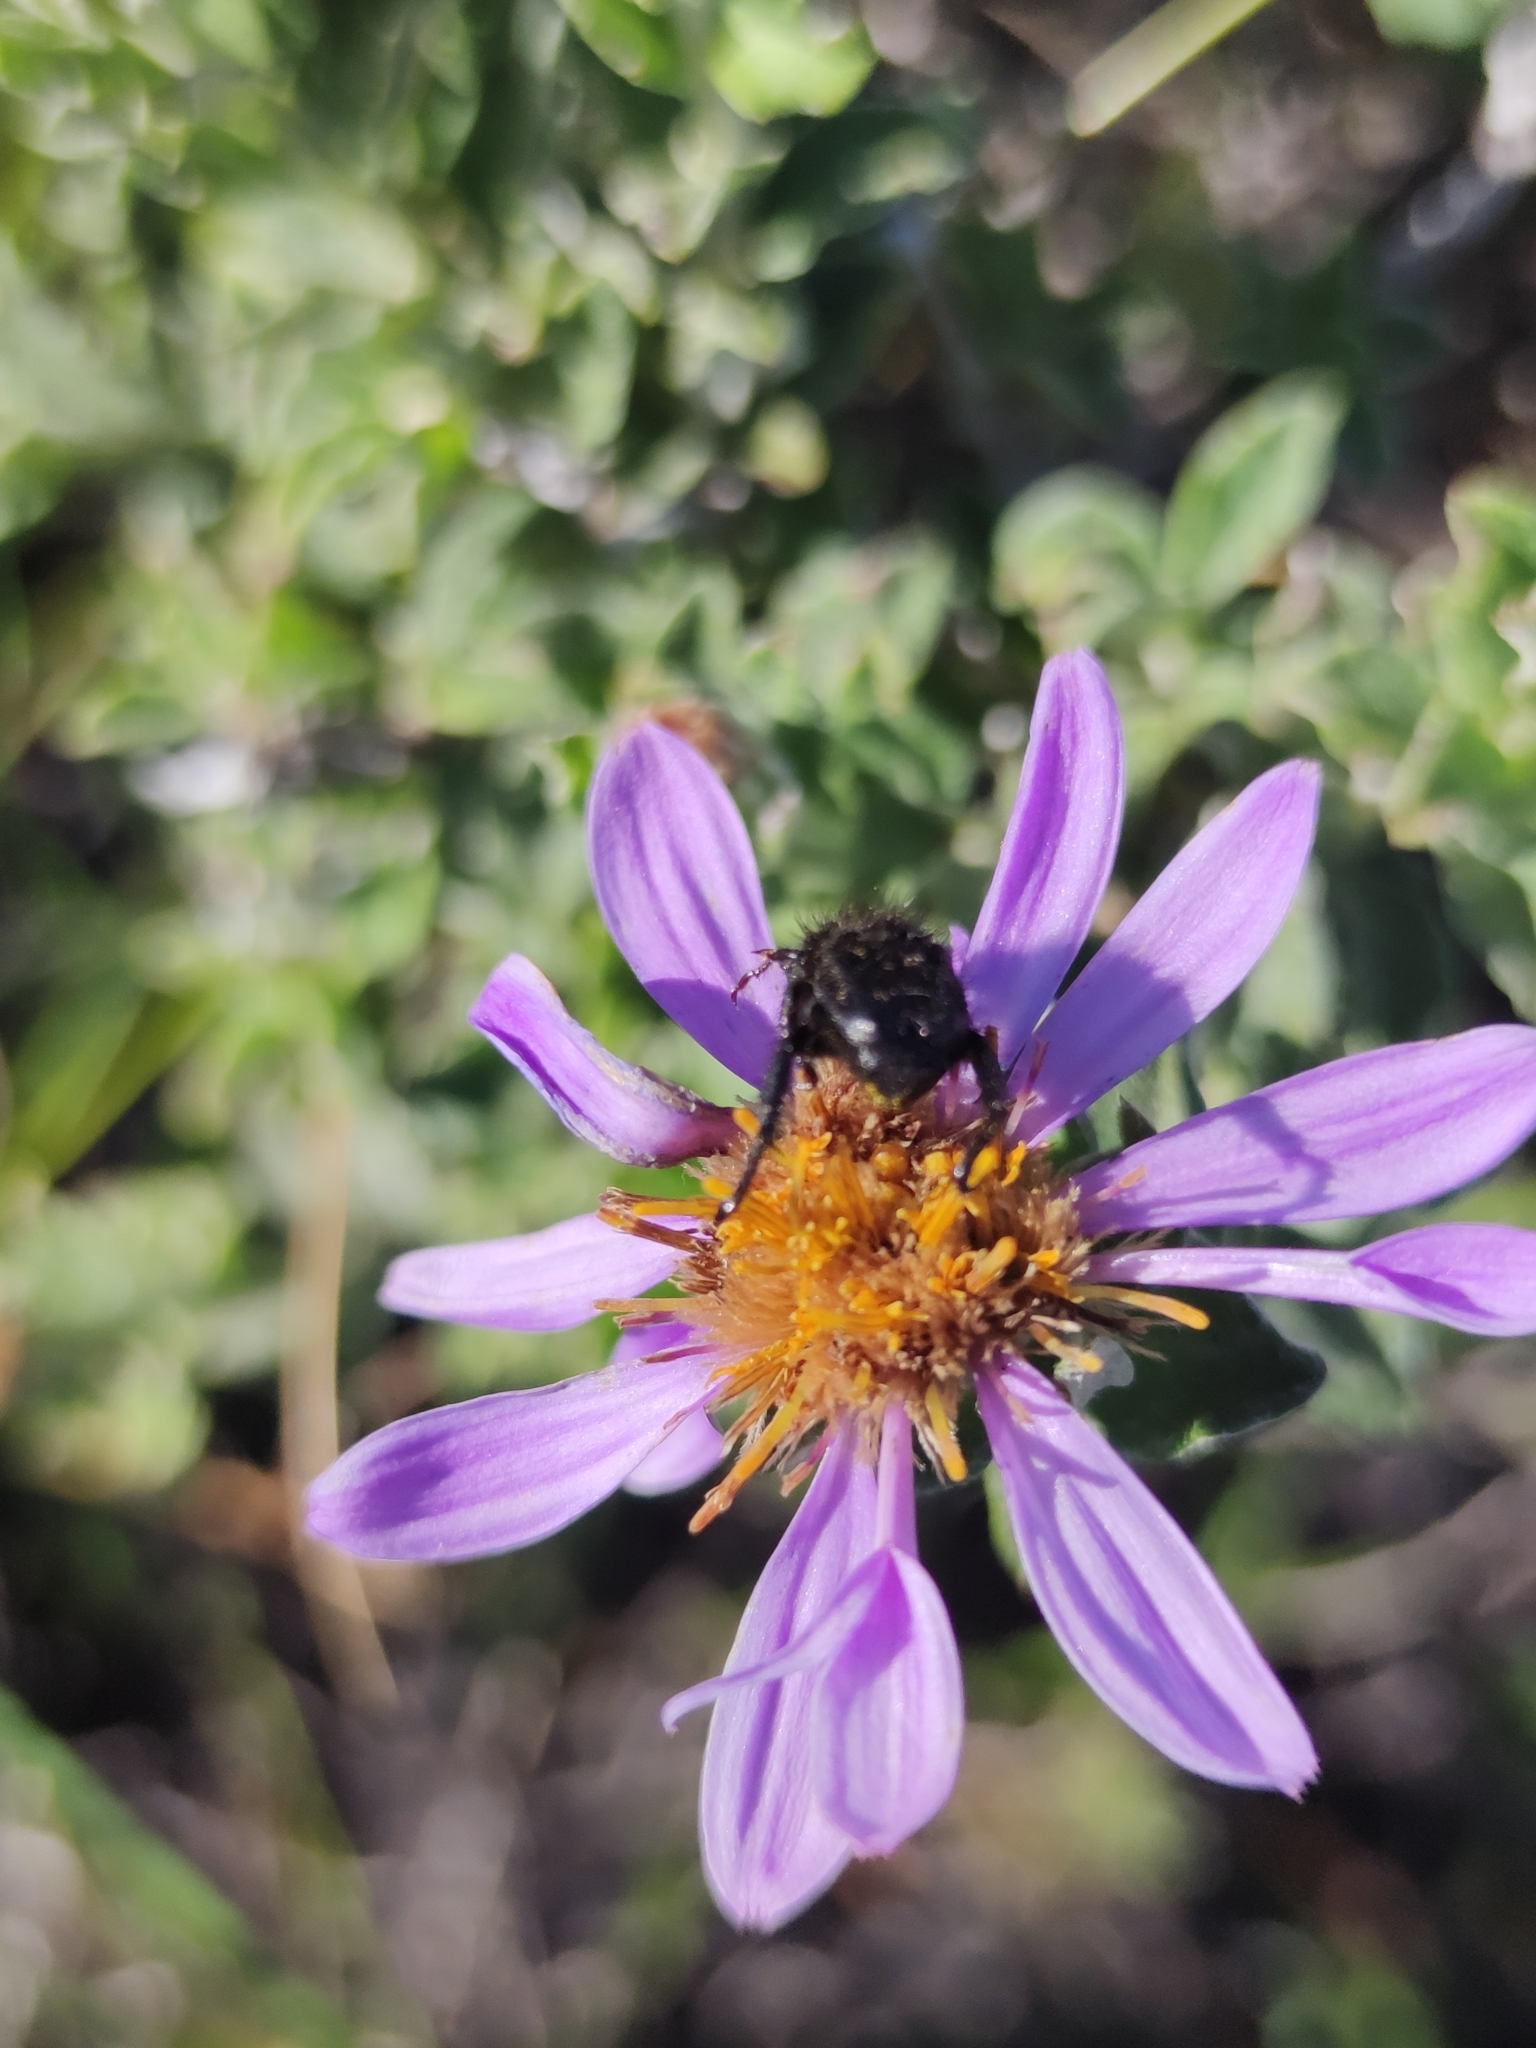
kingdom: Plantae
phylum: Tracheophyta
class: Magnoliopsida
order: Asterales
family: Asteraceae
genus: Printzia
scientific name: Printzia polifolia
